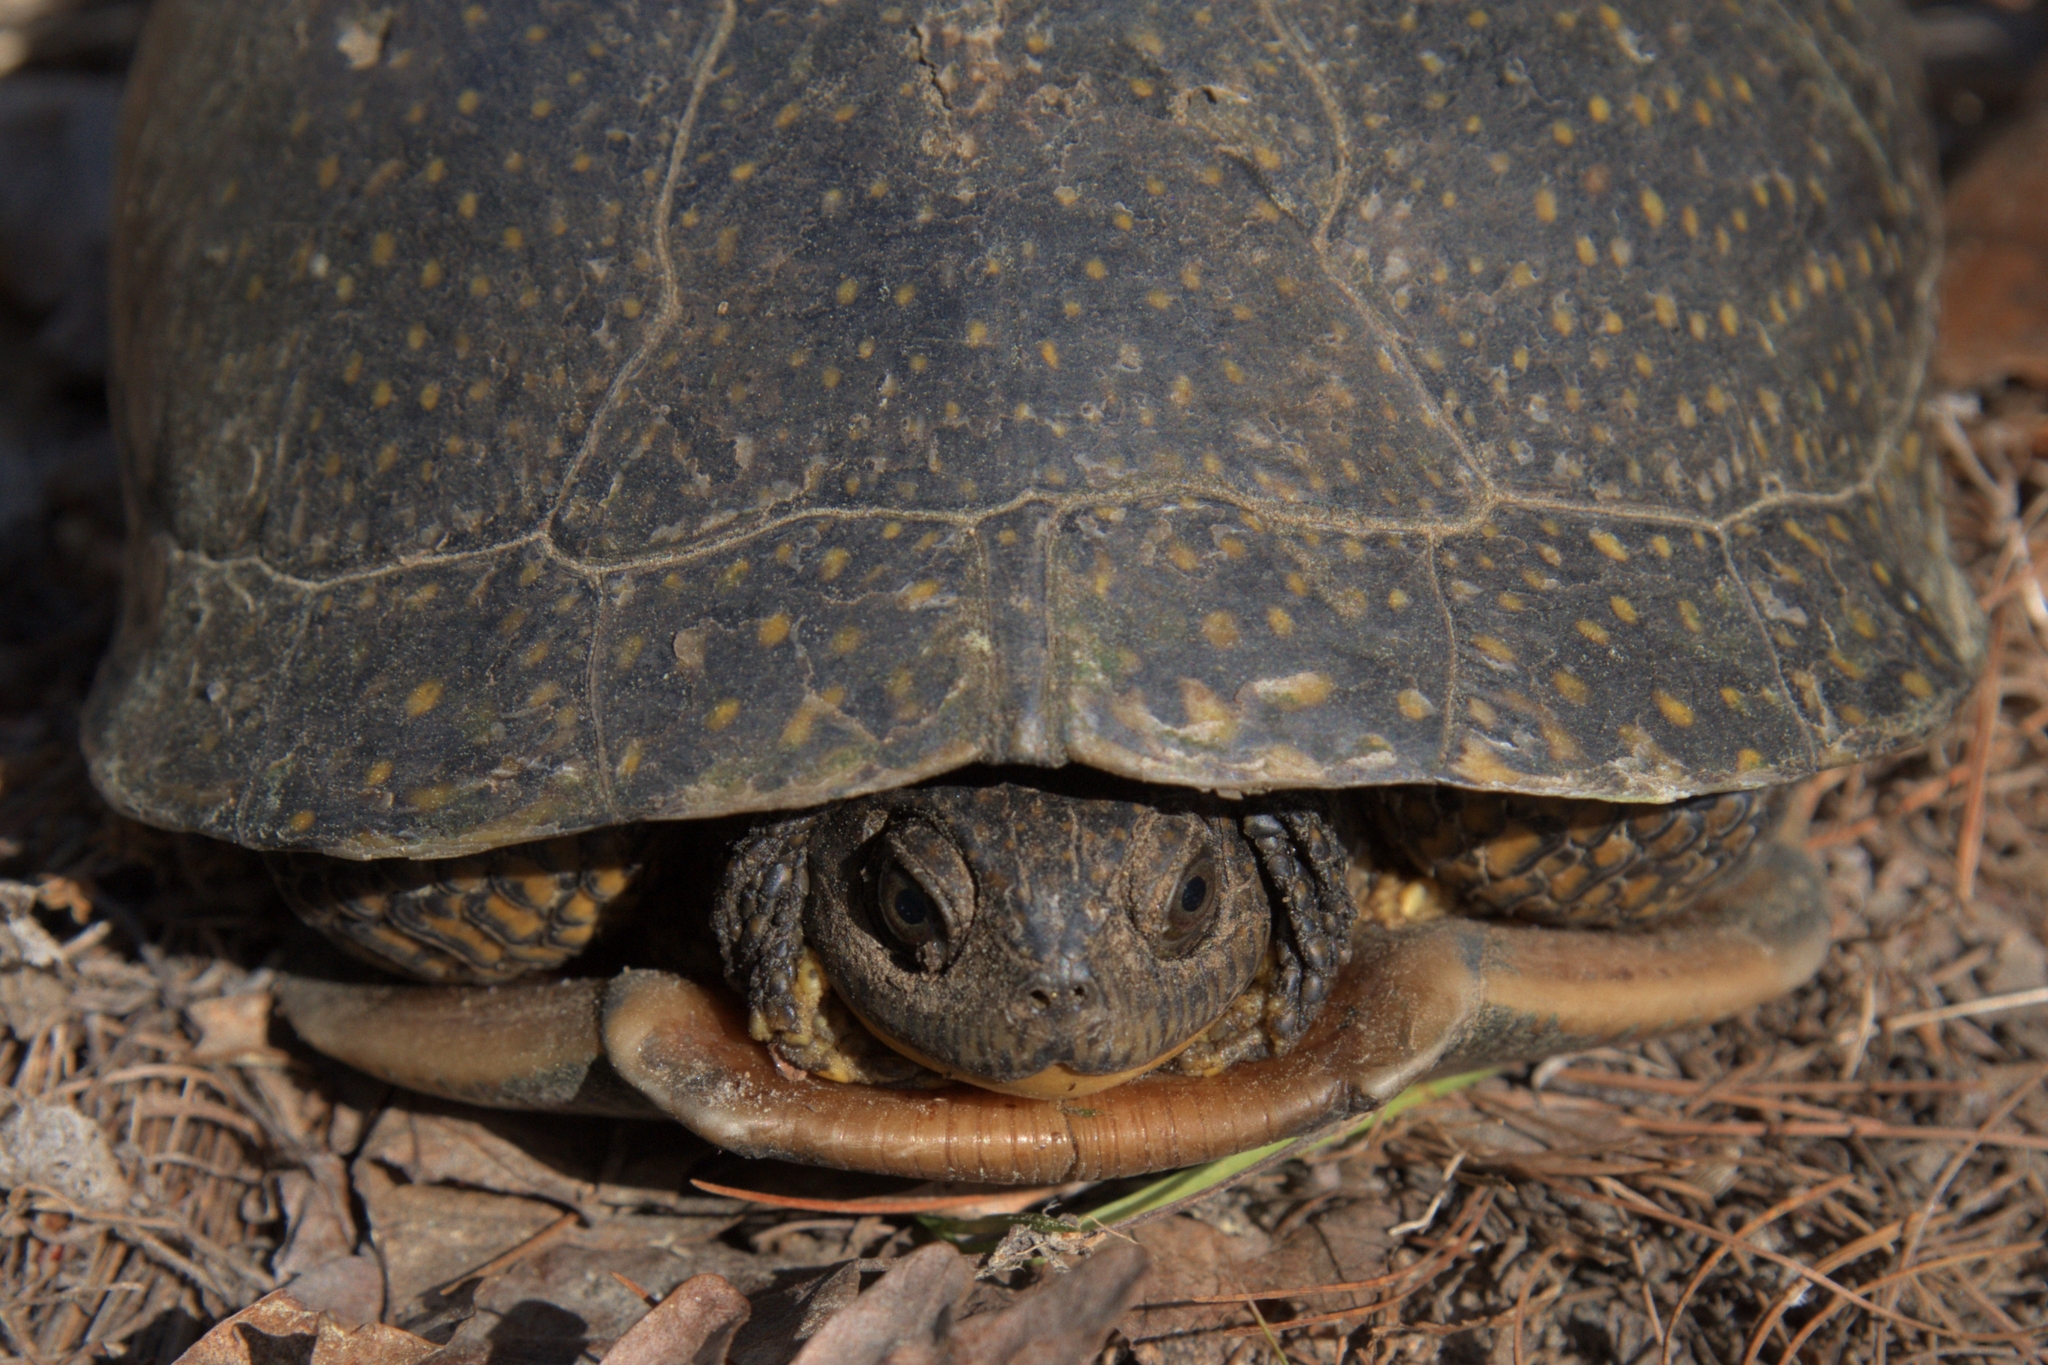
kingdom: Animalia
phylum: Chordata
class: Testudines
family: Emydidae
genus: Emys
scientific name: Emys blandingii
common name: Blanding's turtle
